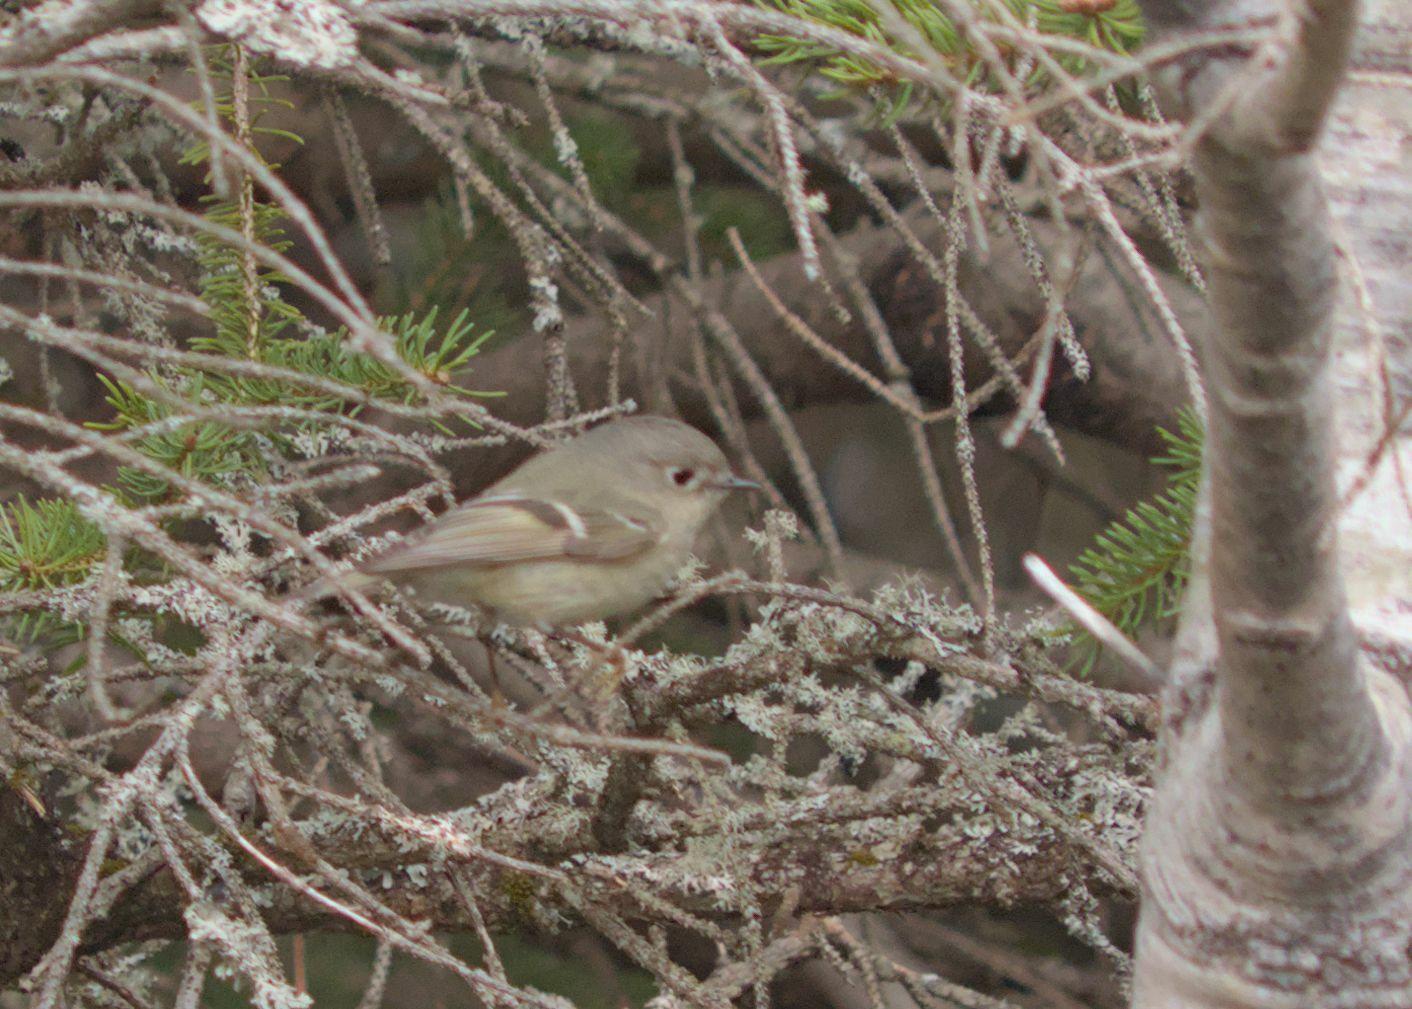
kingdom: Animalia
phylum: Chordata
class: Aves
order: Passeriformes
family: Regulidae
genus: Regulus
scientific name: Regulus calendula
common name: Ruby-crowned kinglet
